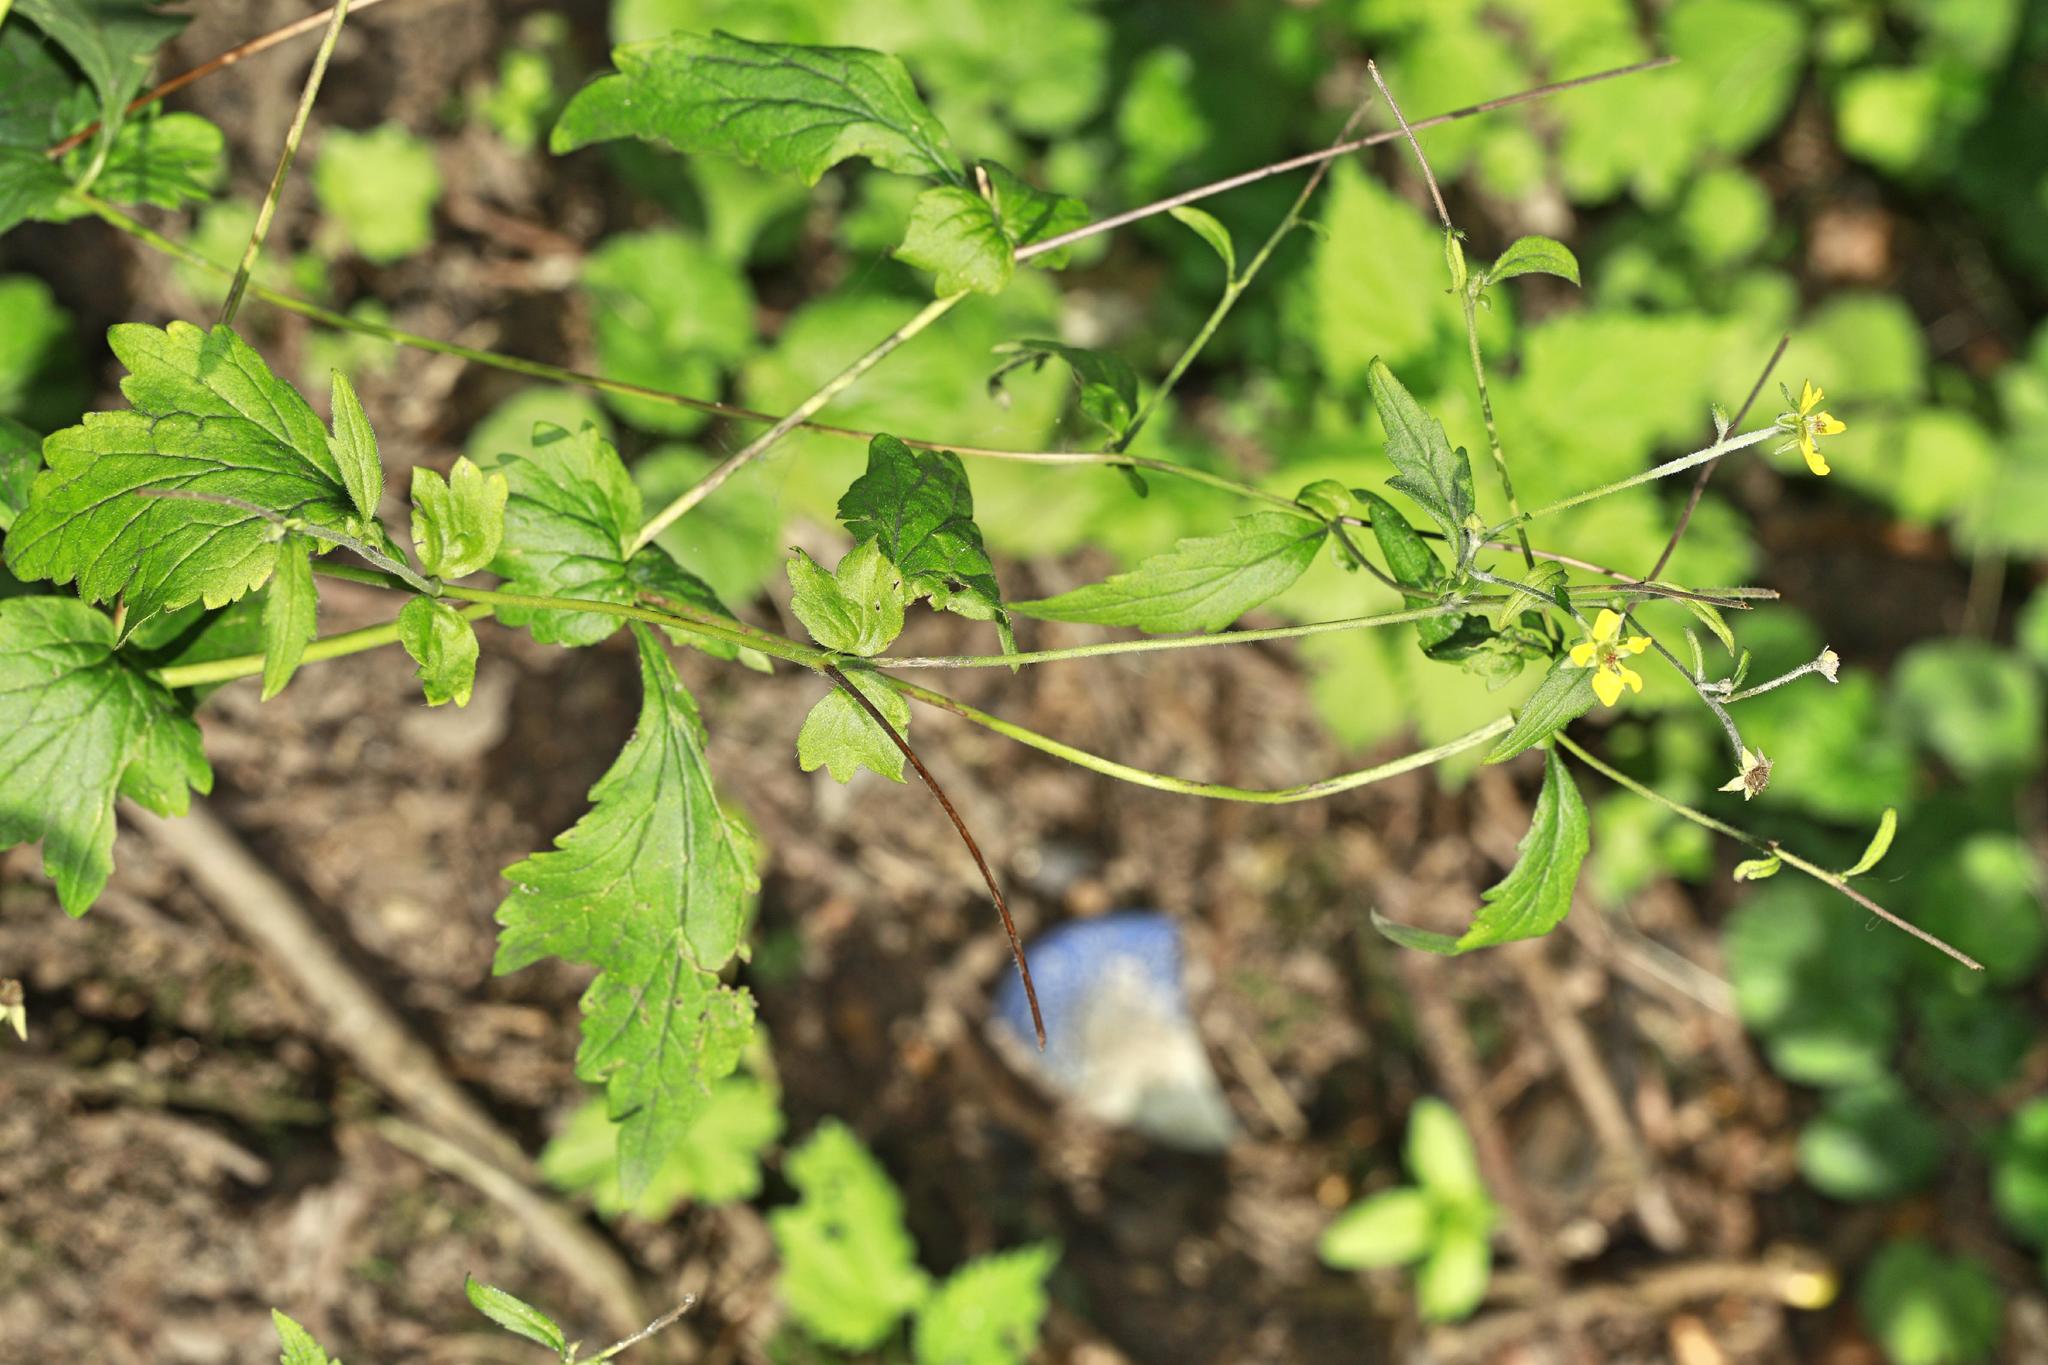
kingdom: Plantae
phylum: Tracheophyta
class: Magnoliopsida
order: Rosales
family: Rosaceae
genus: Geum
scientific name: Geum urbanum
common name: Wood avens
